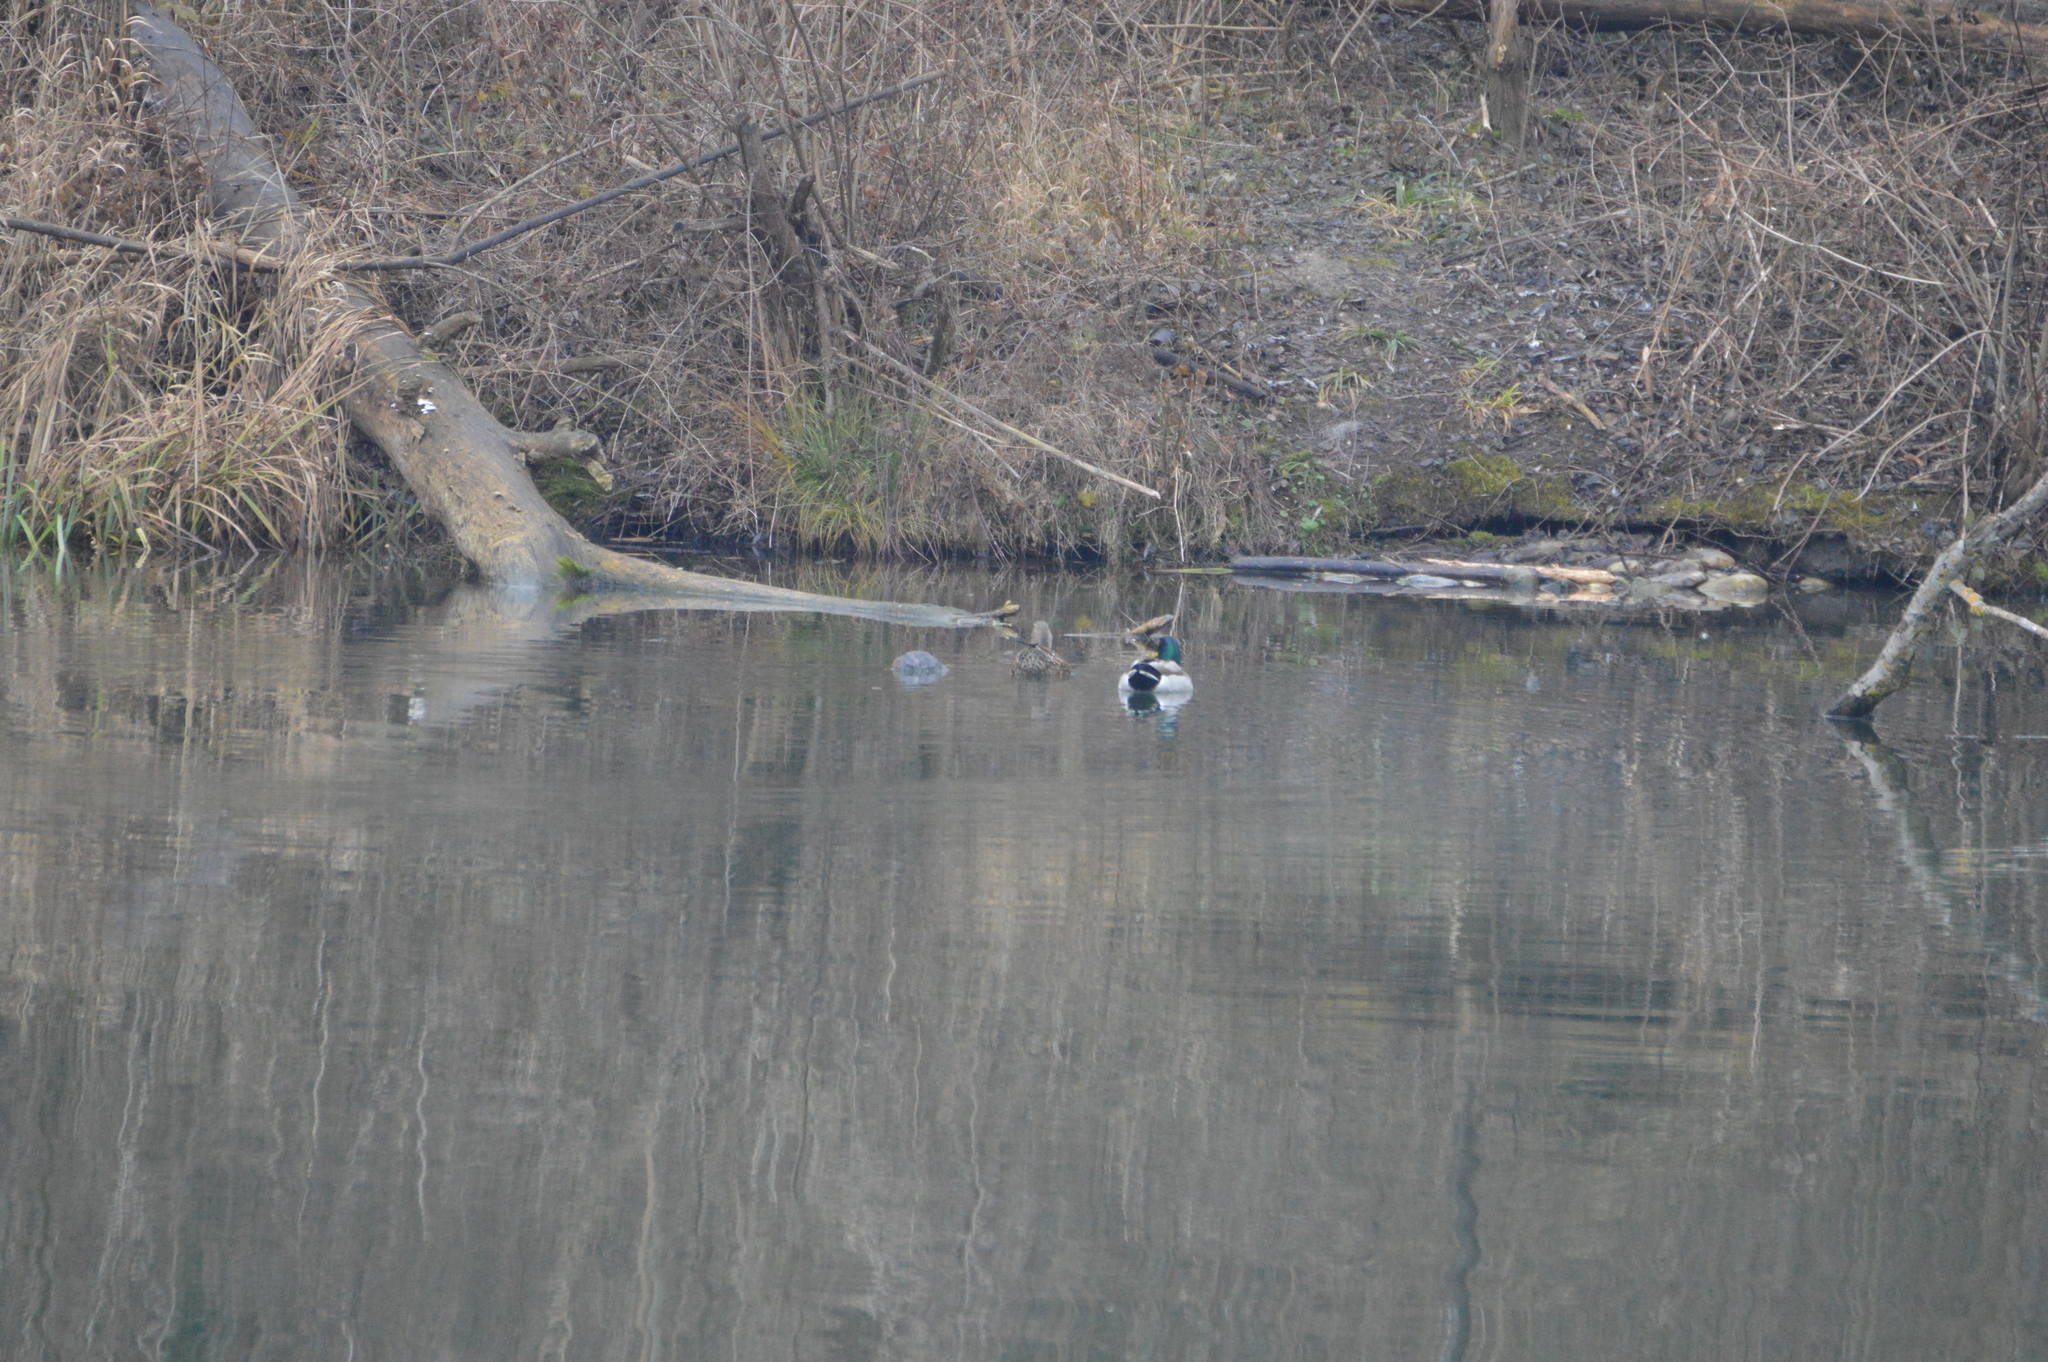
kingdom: Animalia
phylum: Chordata
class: Aves
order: Anseriformes
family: Anatidae
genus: Anas
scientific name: Anas platyrhynchos
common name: Mallard
